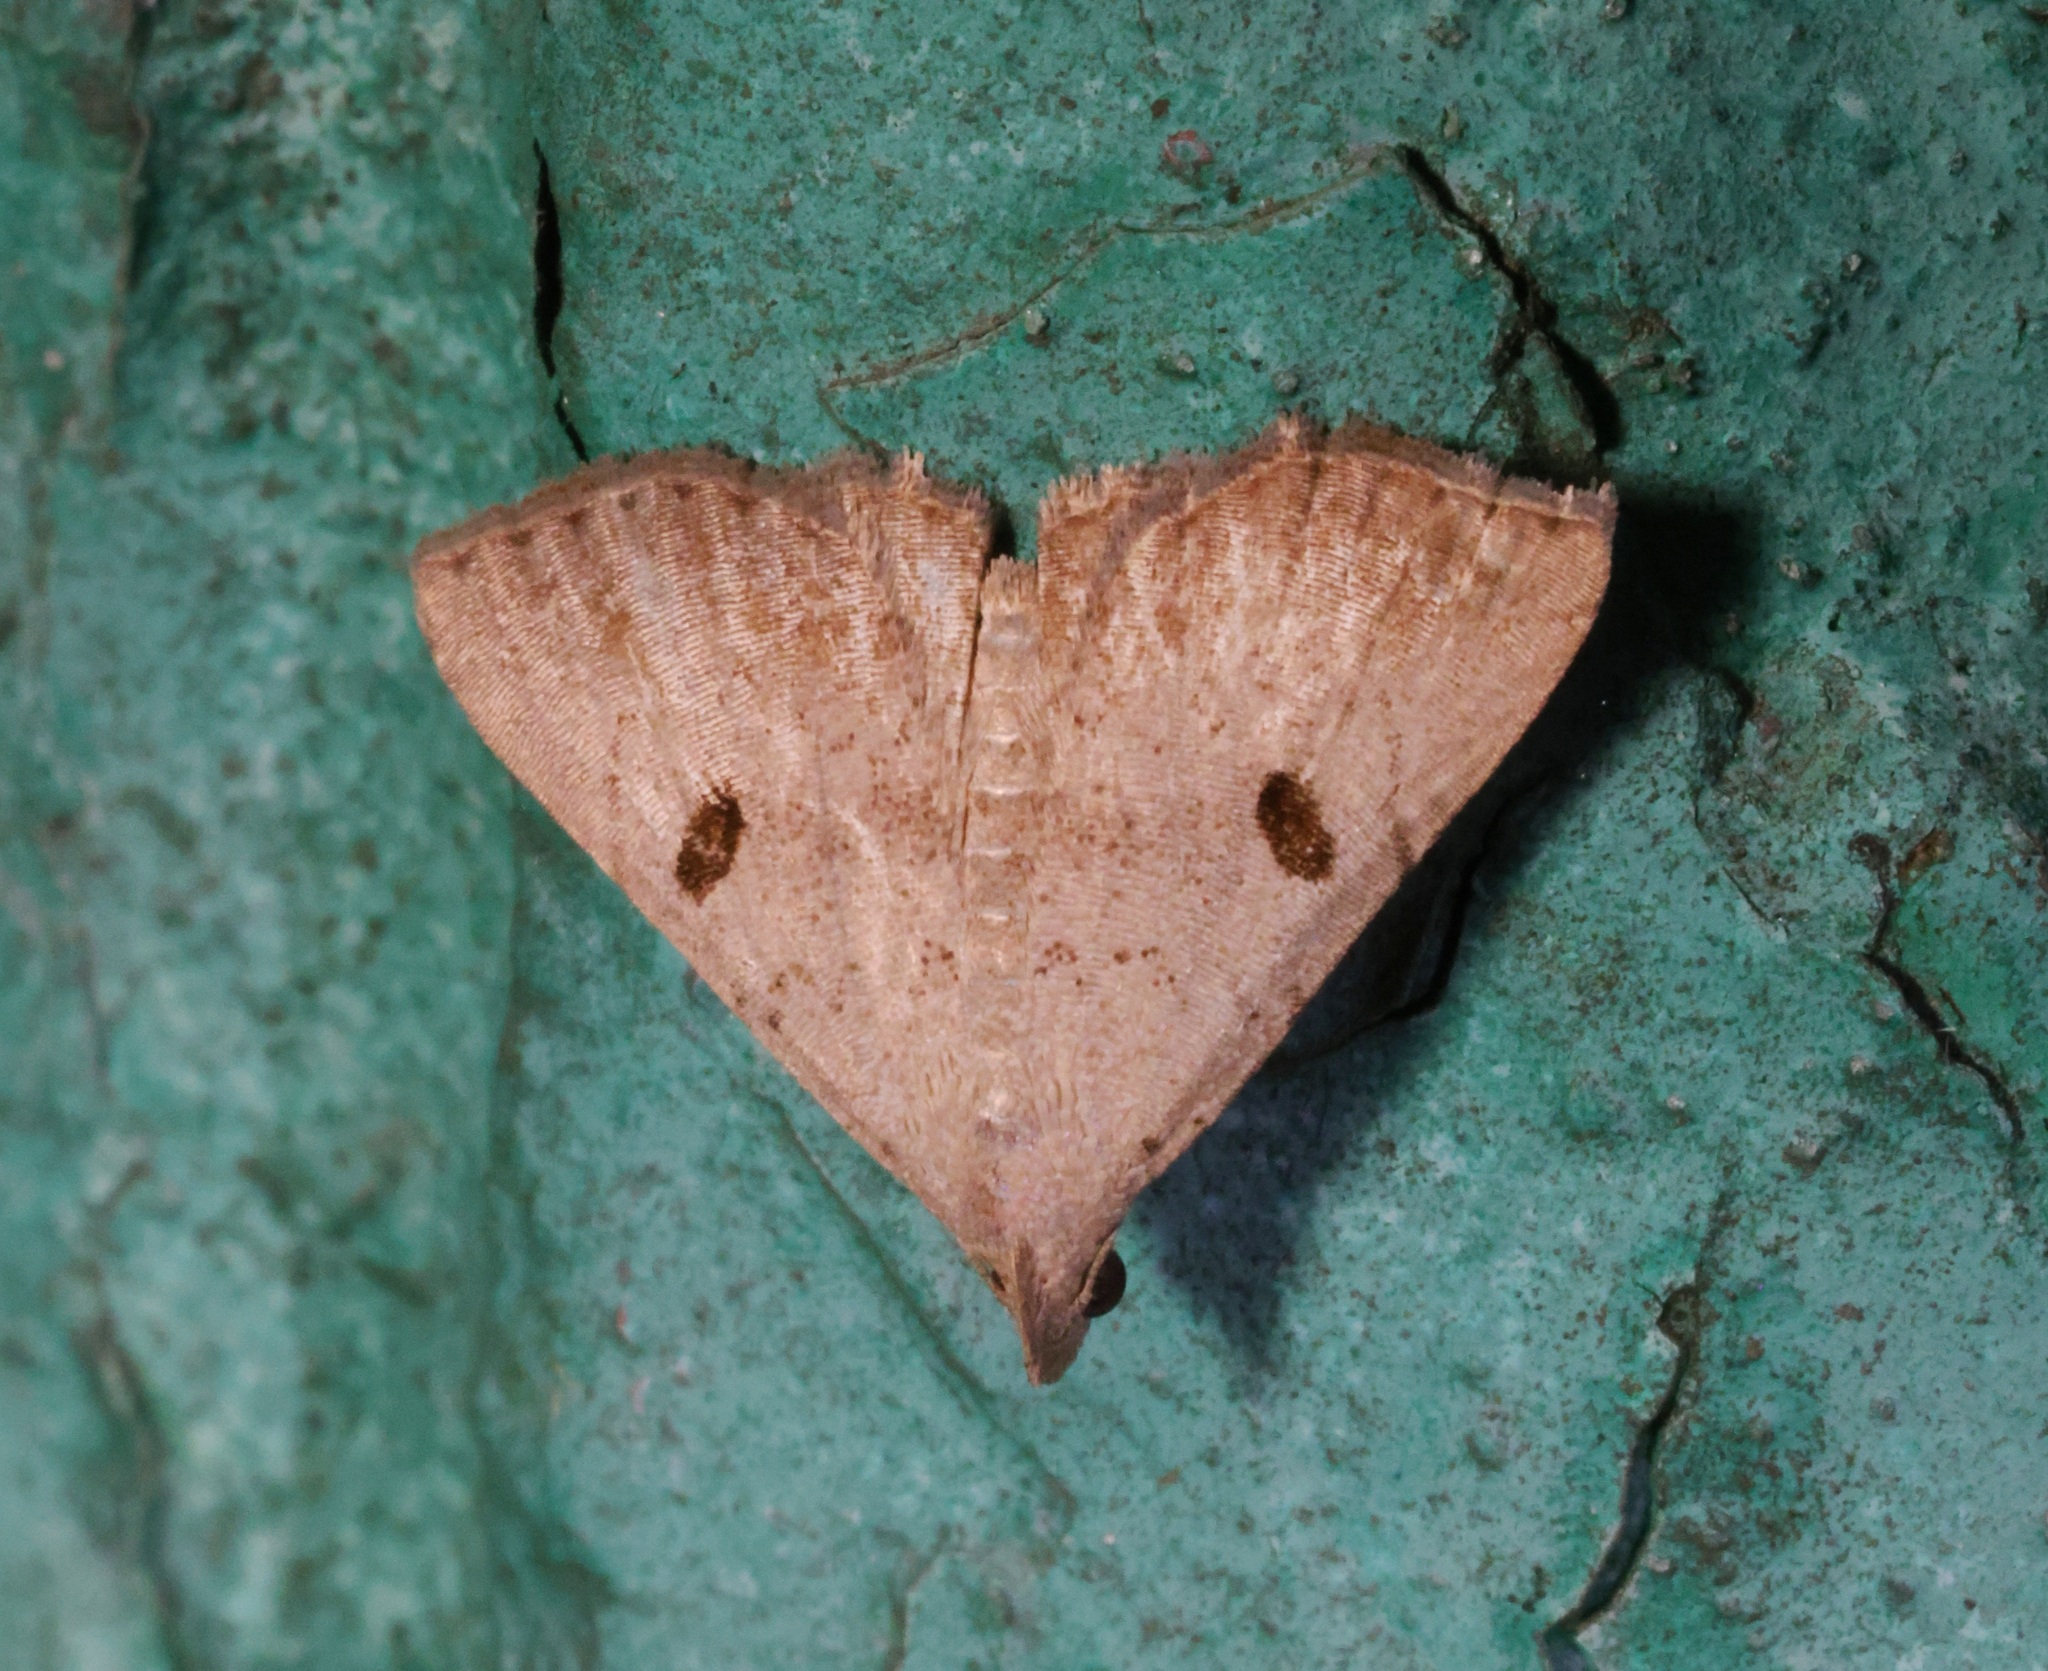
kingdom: Animalia
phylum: Arthropoda
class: Insecta
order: Lepidoptera
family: Erebidae
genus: Progonia
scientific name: Progonia oileusalis
